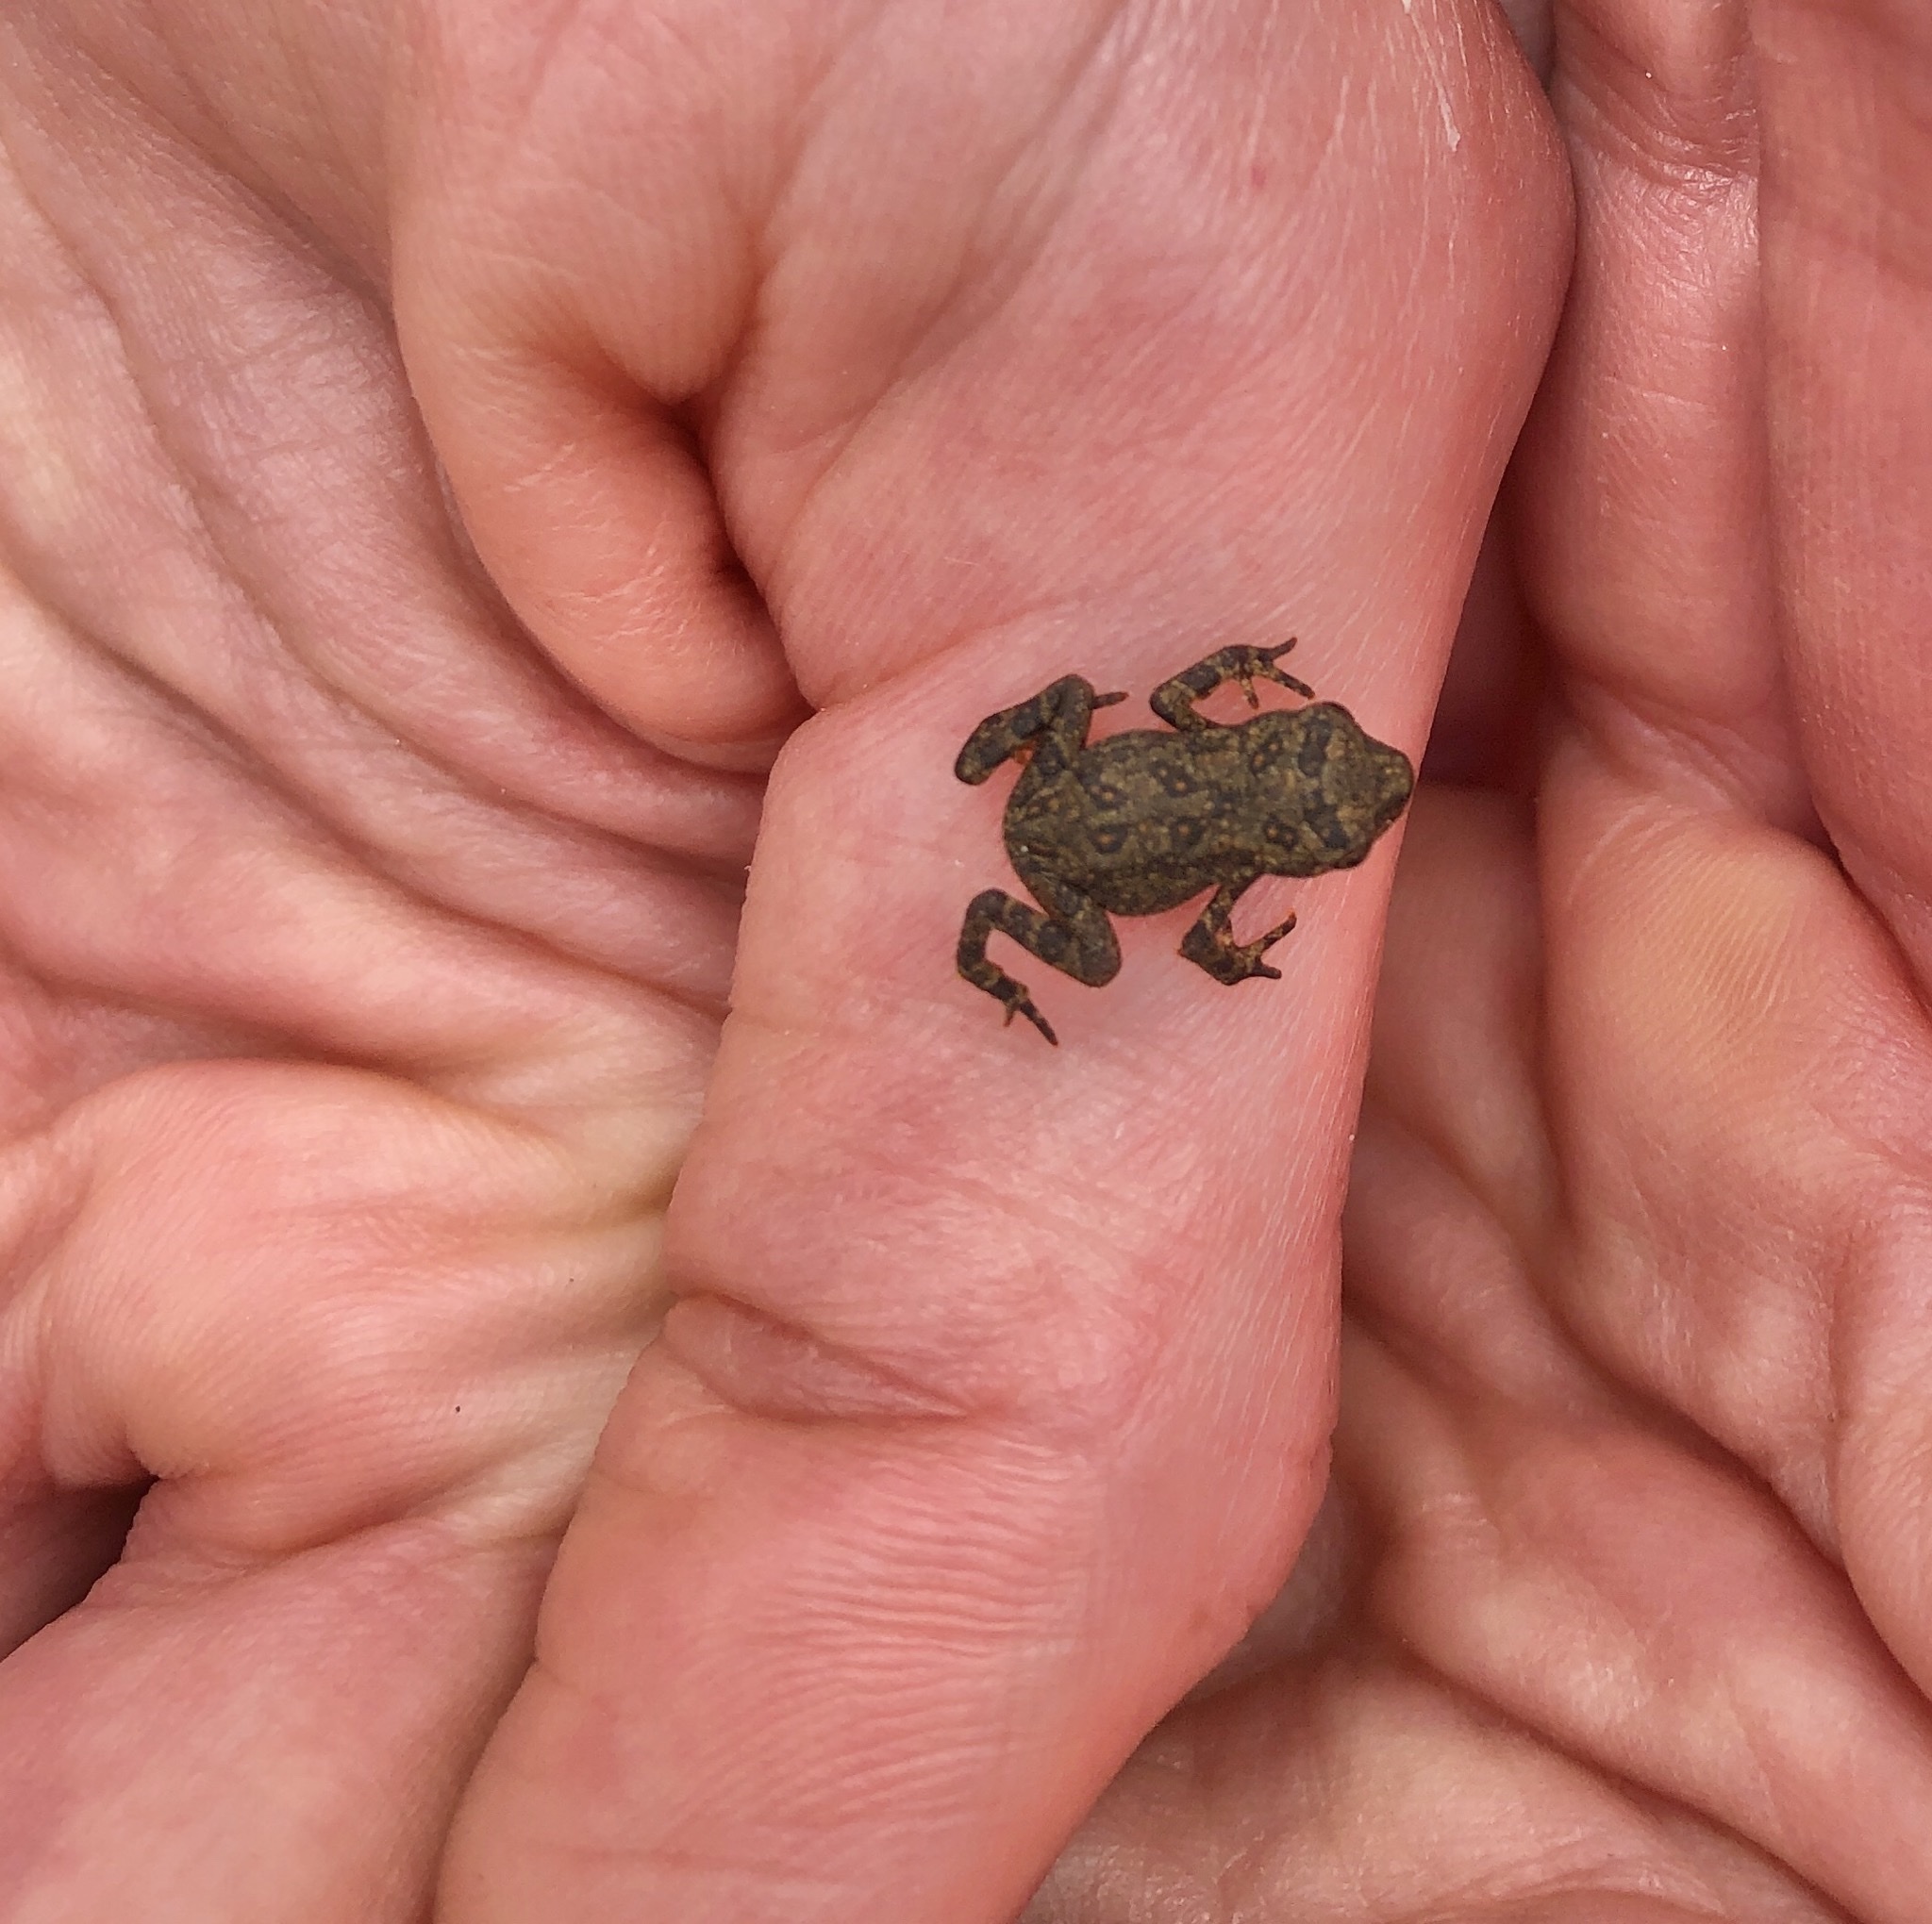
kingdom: Animalia
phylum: Chordata
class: Amphibia
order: Anura
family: Bufonidae
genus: Anaxyrus
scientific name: Anaxyrus americanus
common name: American toad
